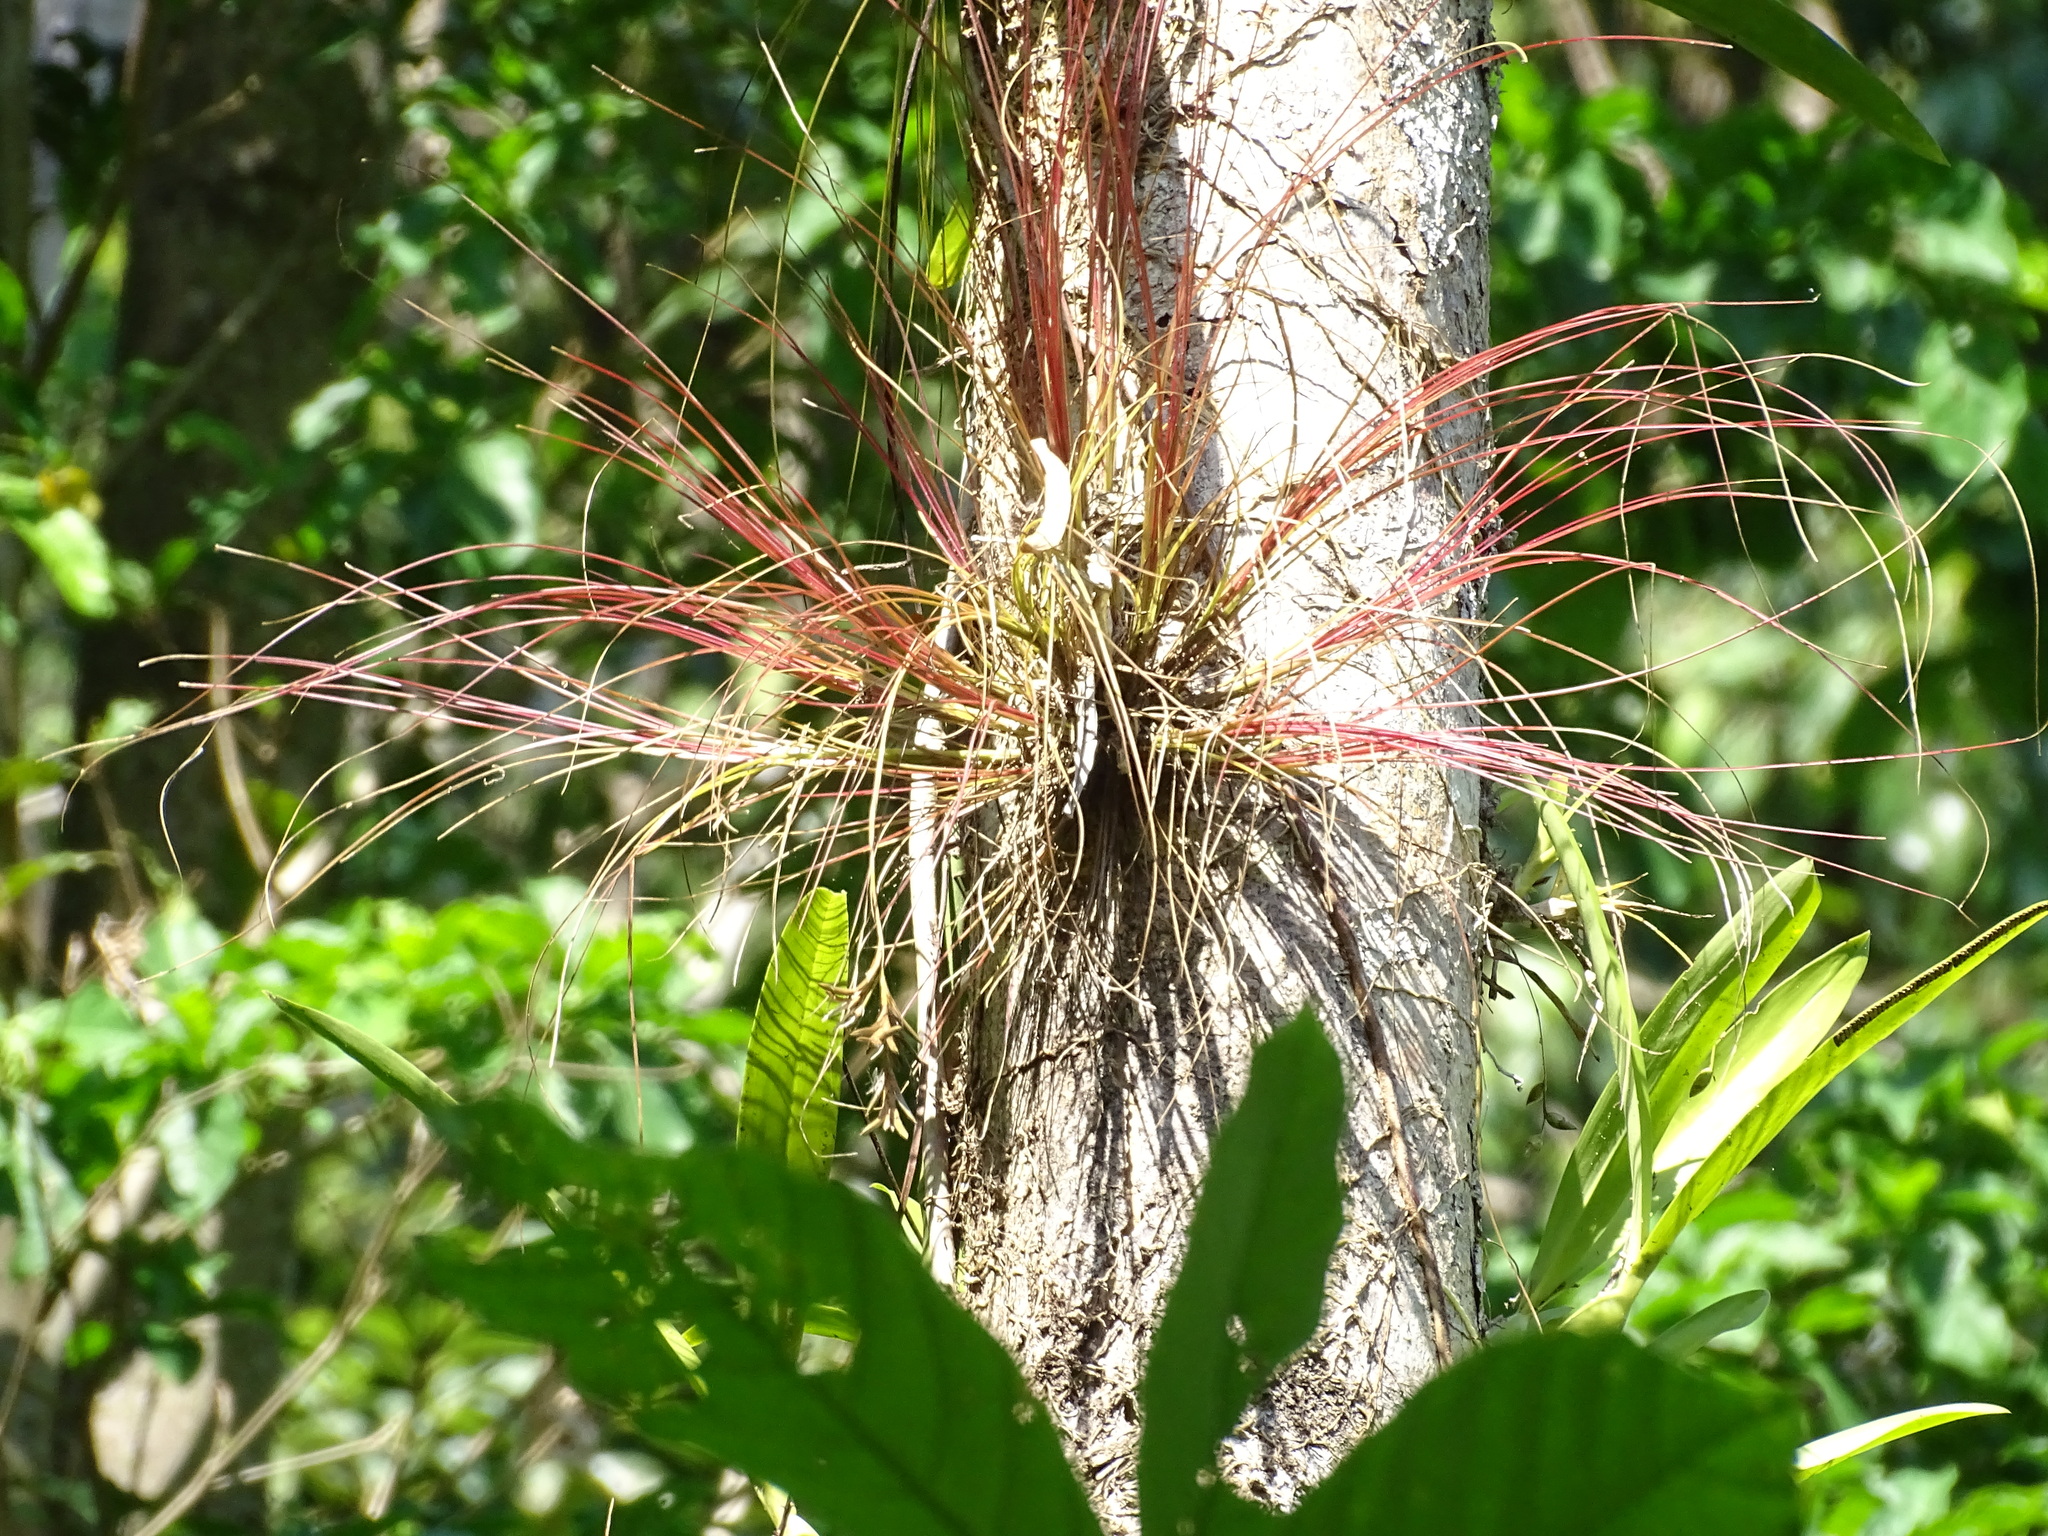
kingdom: Plantae
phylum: Tracheophyta
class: Liliopsida
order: Poales
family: Bromeliaceae
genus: Tillandsia
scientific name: Tillandsia eistetteri
